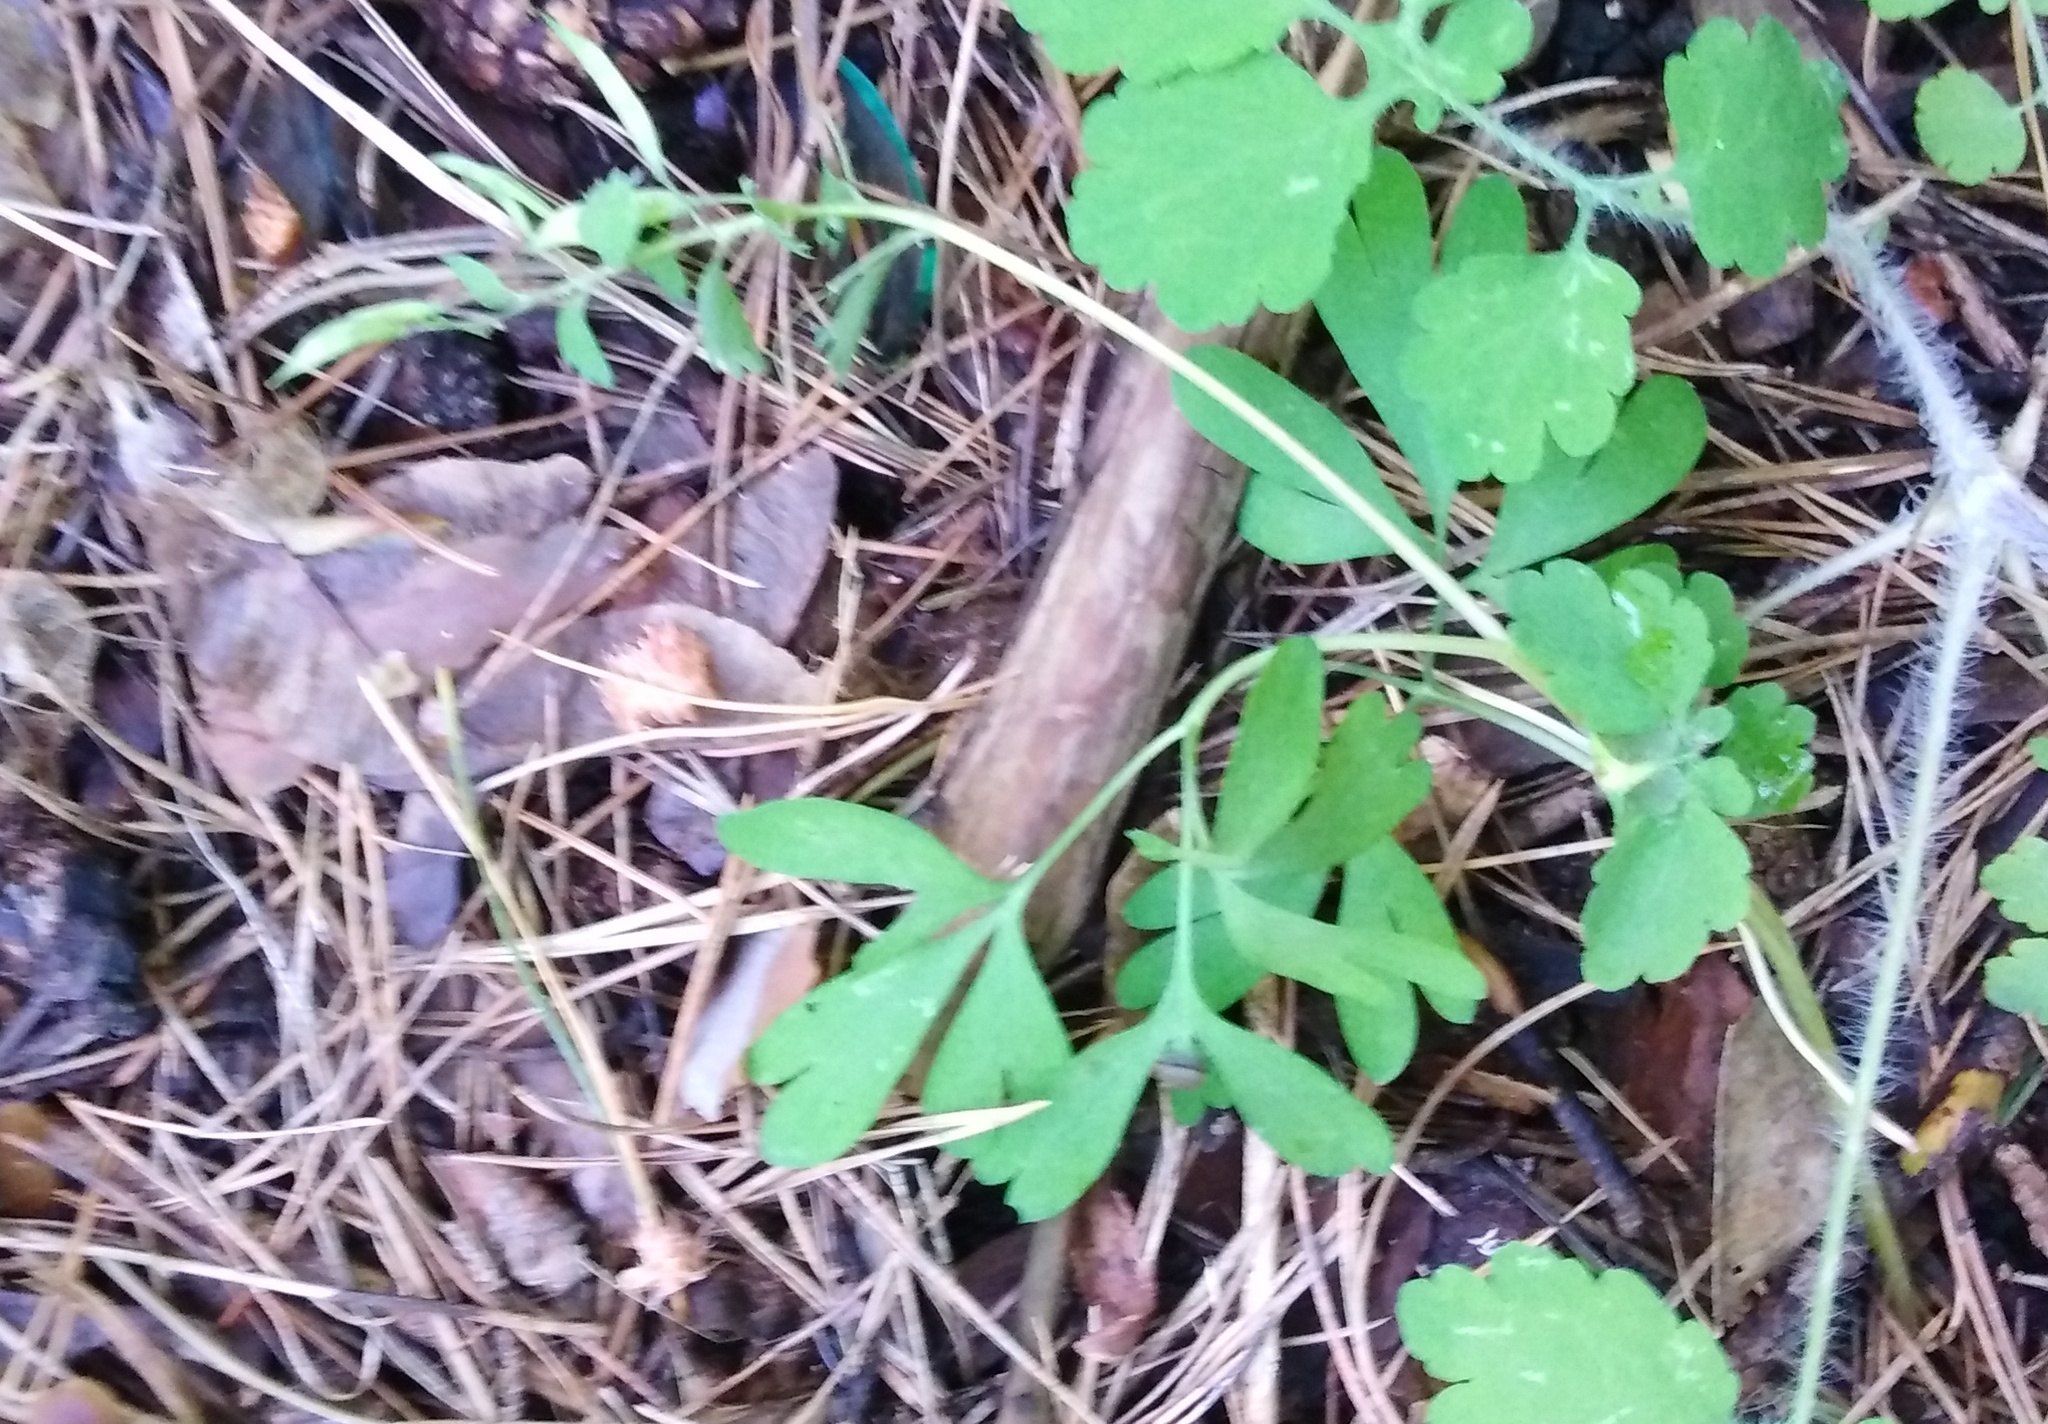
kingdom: Plantae
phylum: Tracheophyta
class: Magnoliopsida
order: Ranunculales
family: Papaveraceae
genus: Corydalis
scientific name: Corydalis solida
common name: Bird-in-a-bush
